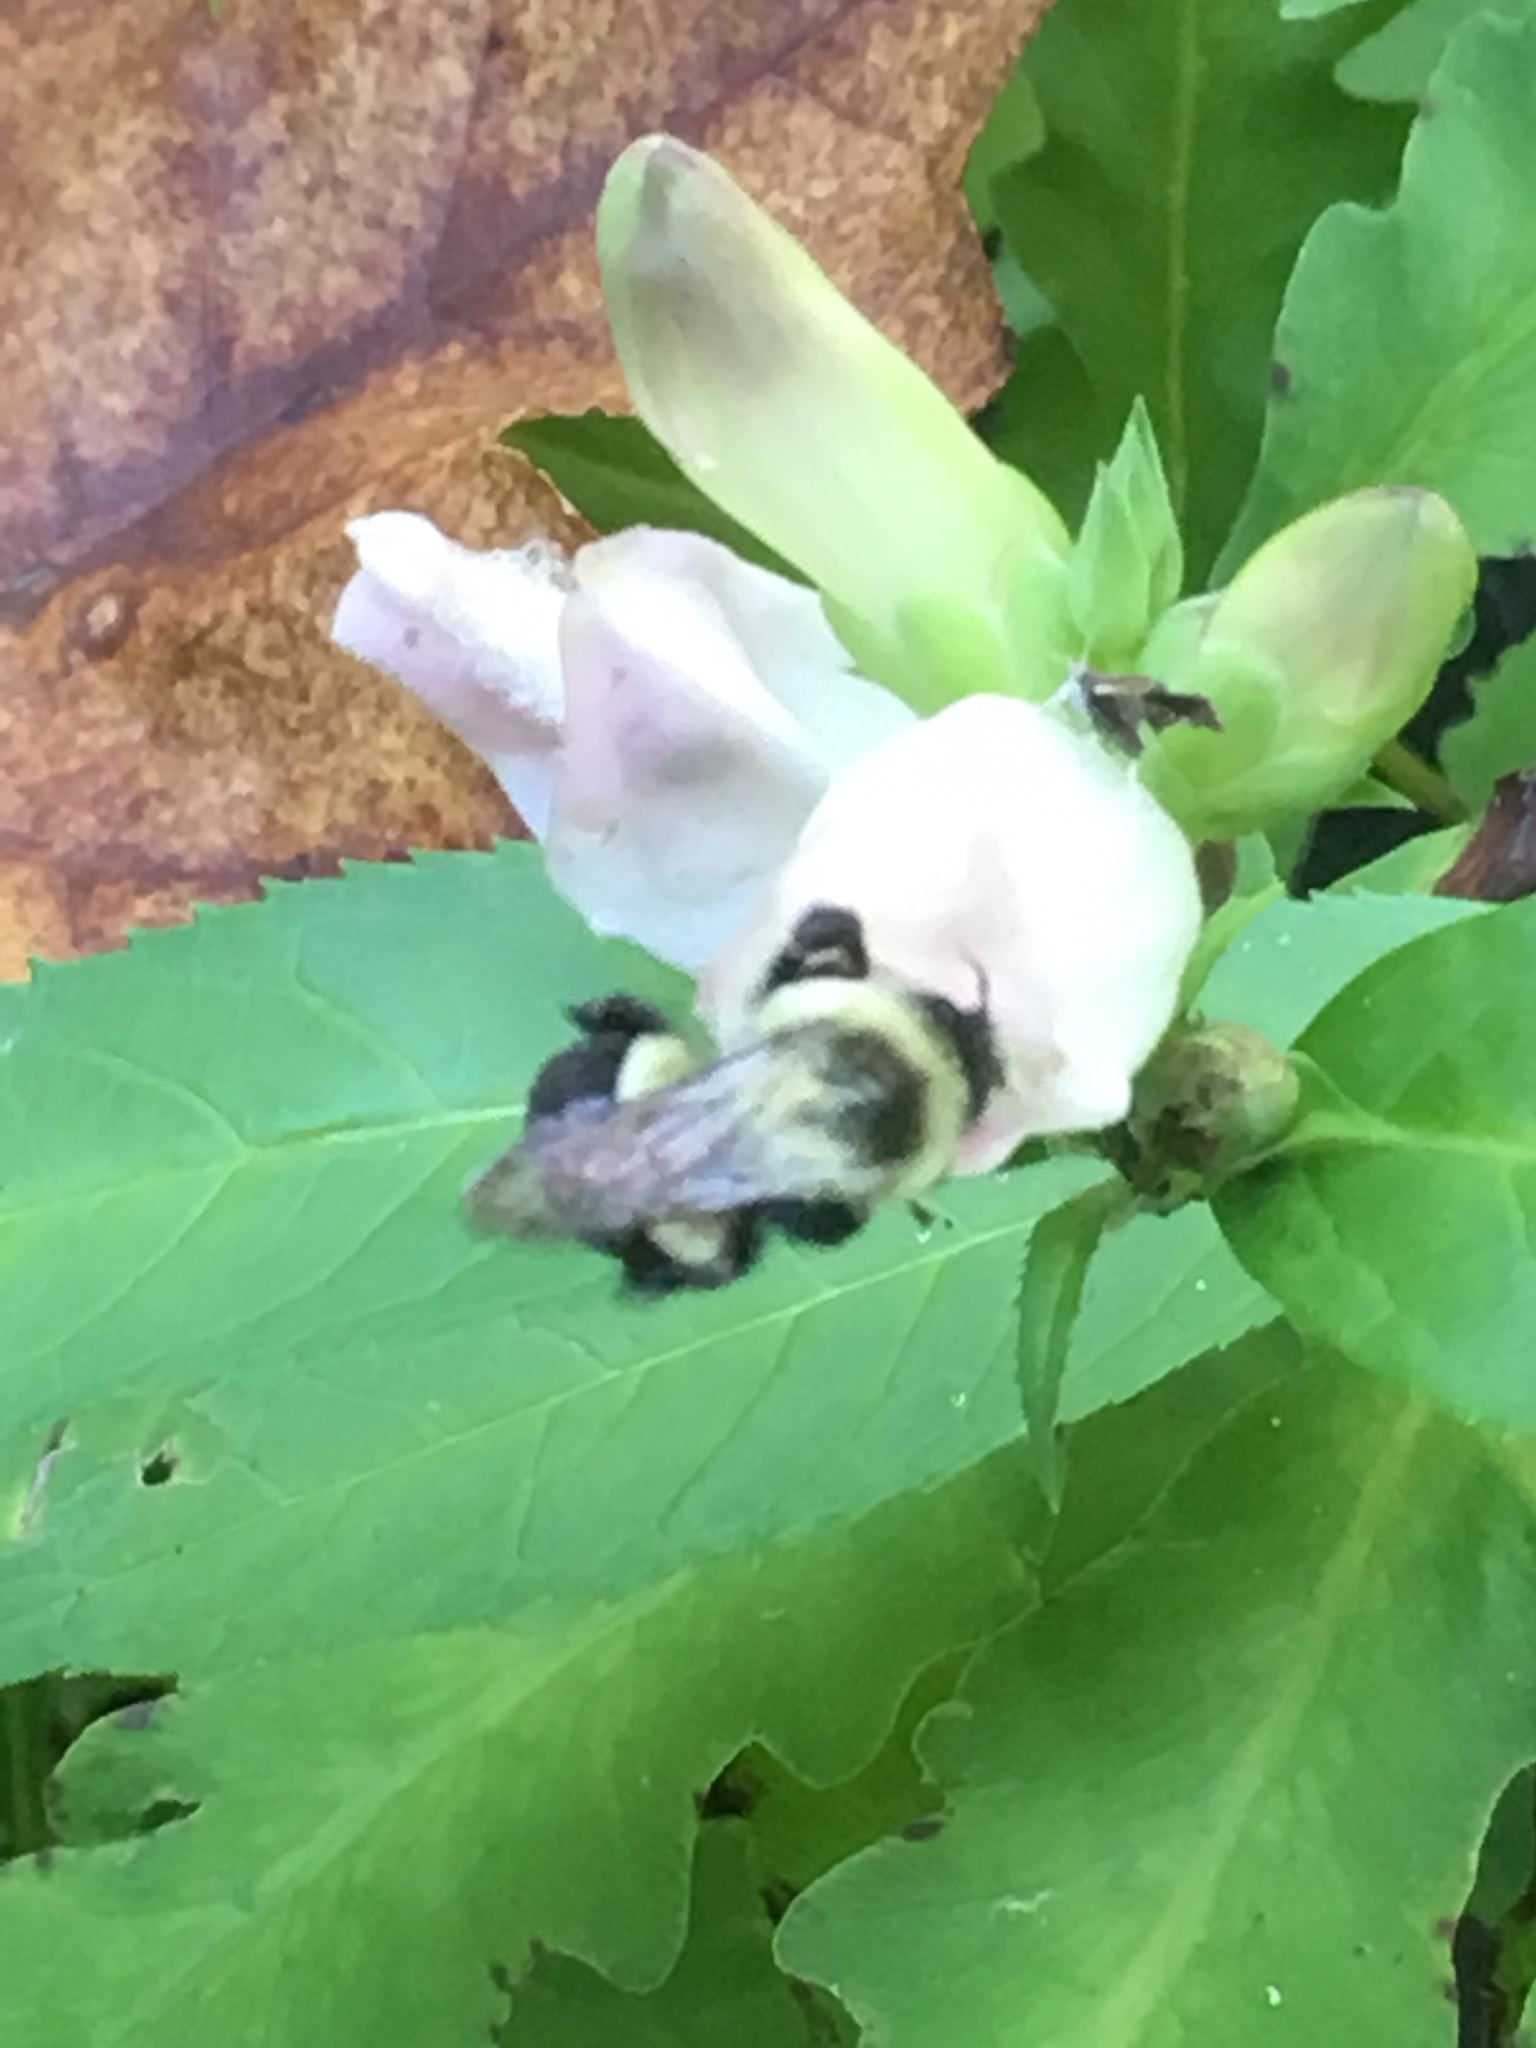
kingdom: Animalia
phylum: Arthropoda
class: Insecta
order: Hymenoptera
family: Apidae
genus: Bombus
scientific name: Bombus impatiens
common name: Common eastern bumble bee
